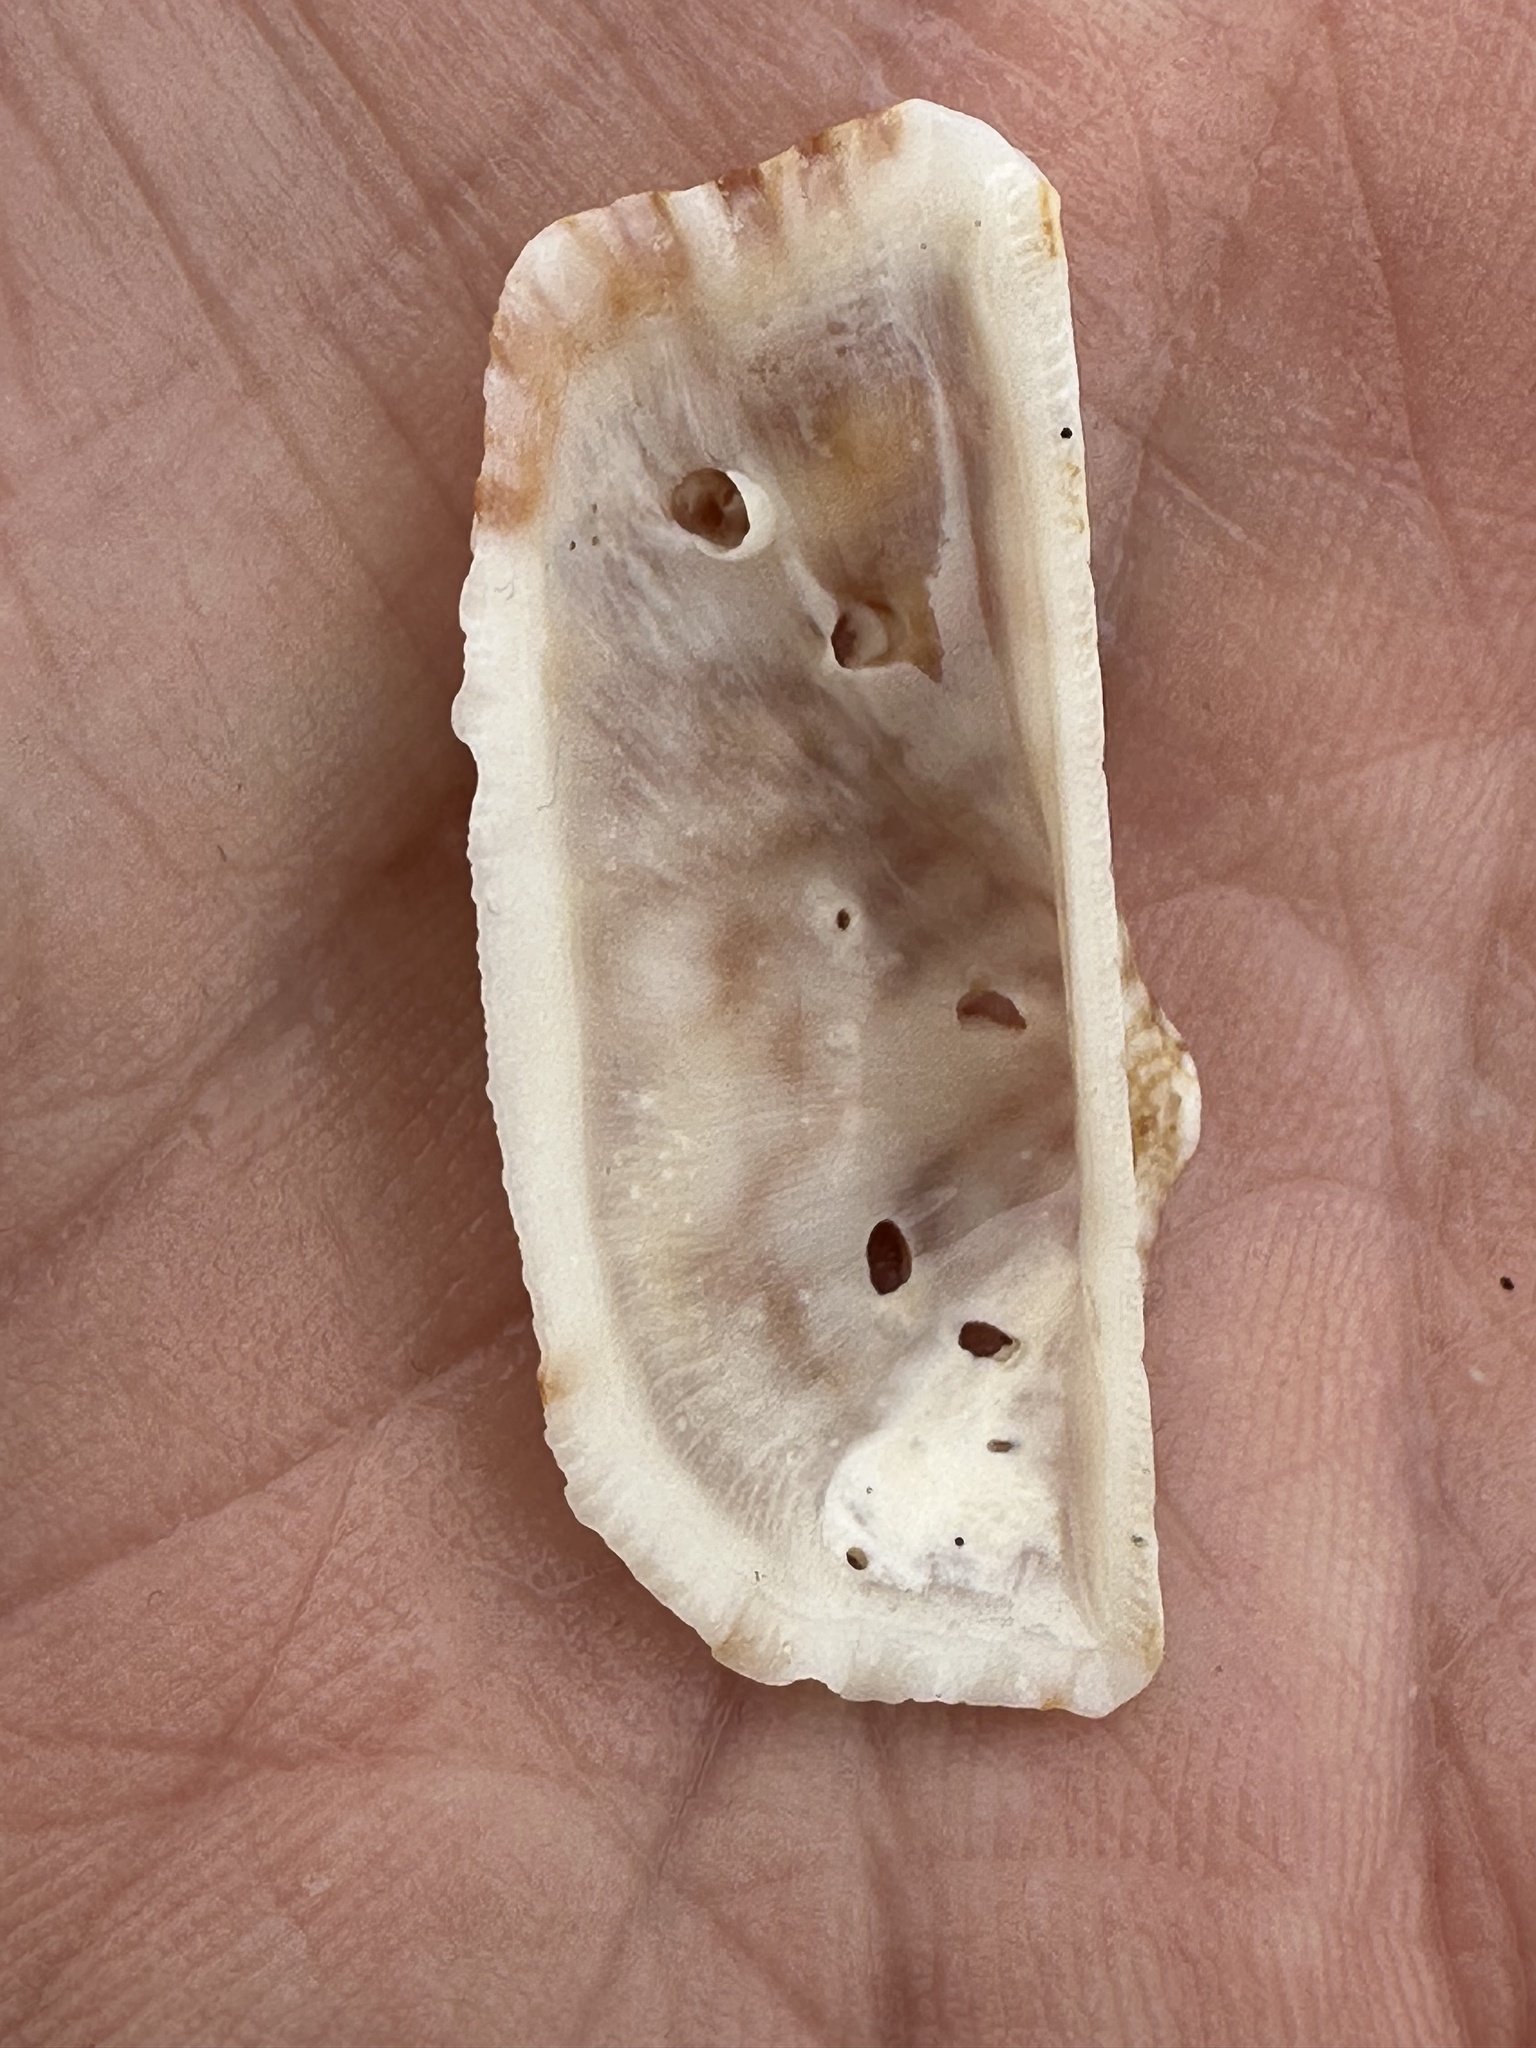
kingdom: Animalia
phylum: Mollusca
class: Bivalvia
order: Arcida
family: Arcidae
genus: Arca
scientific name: Arca navicularis
